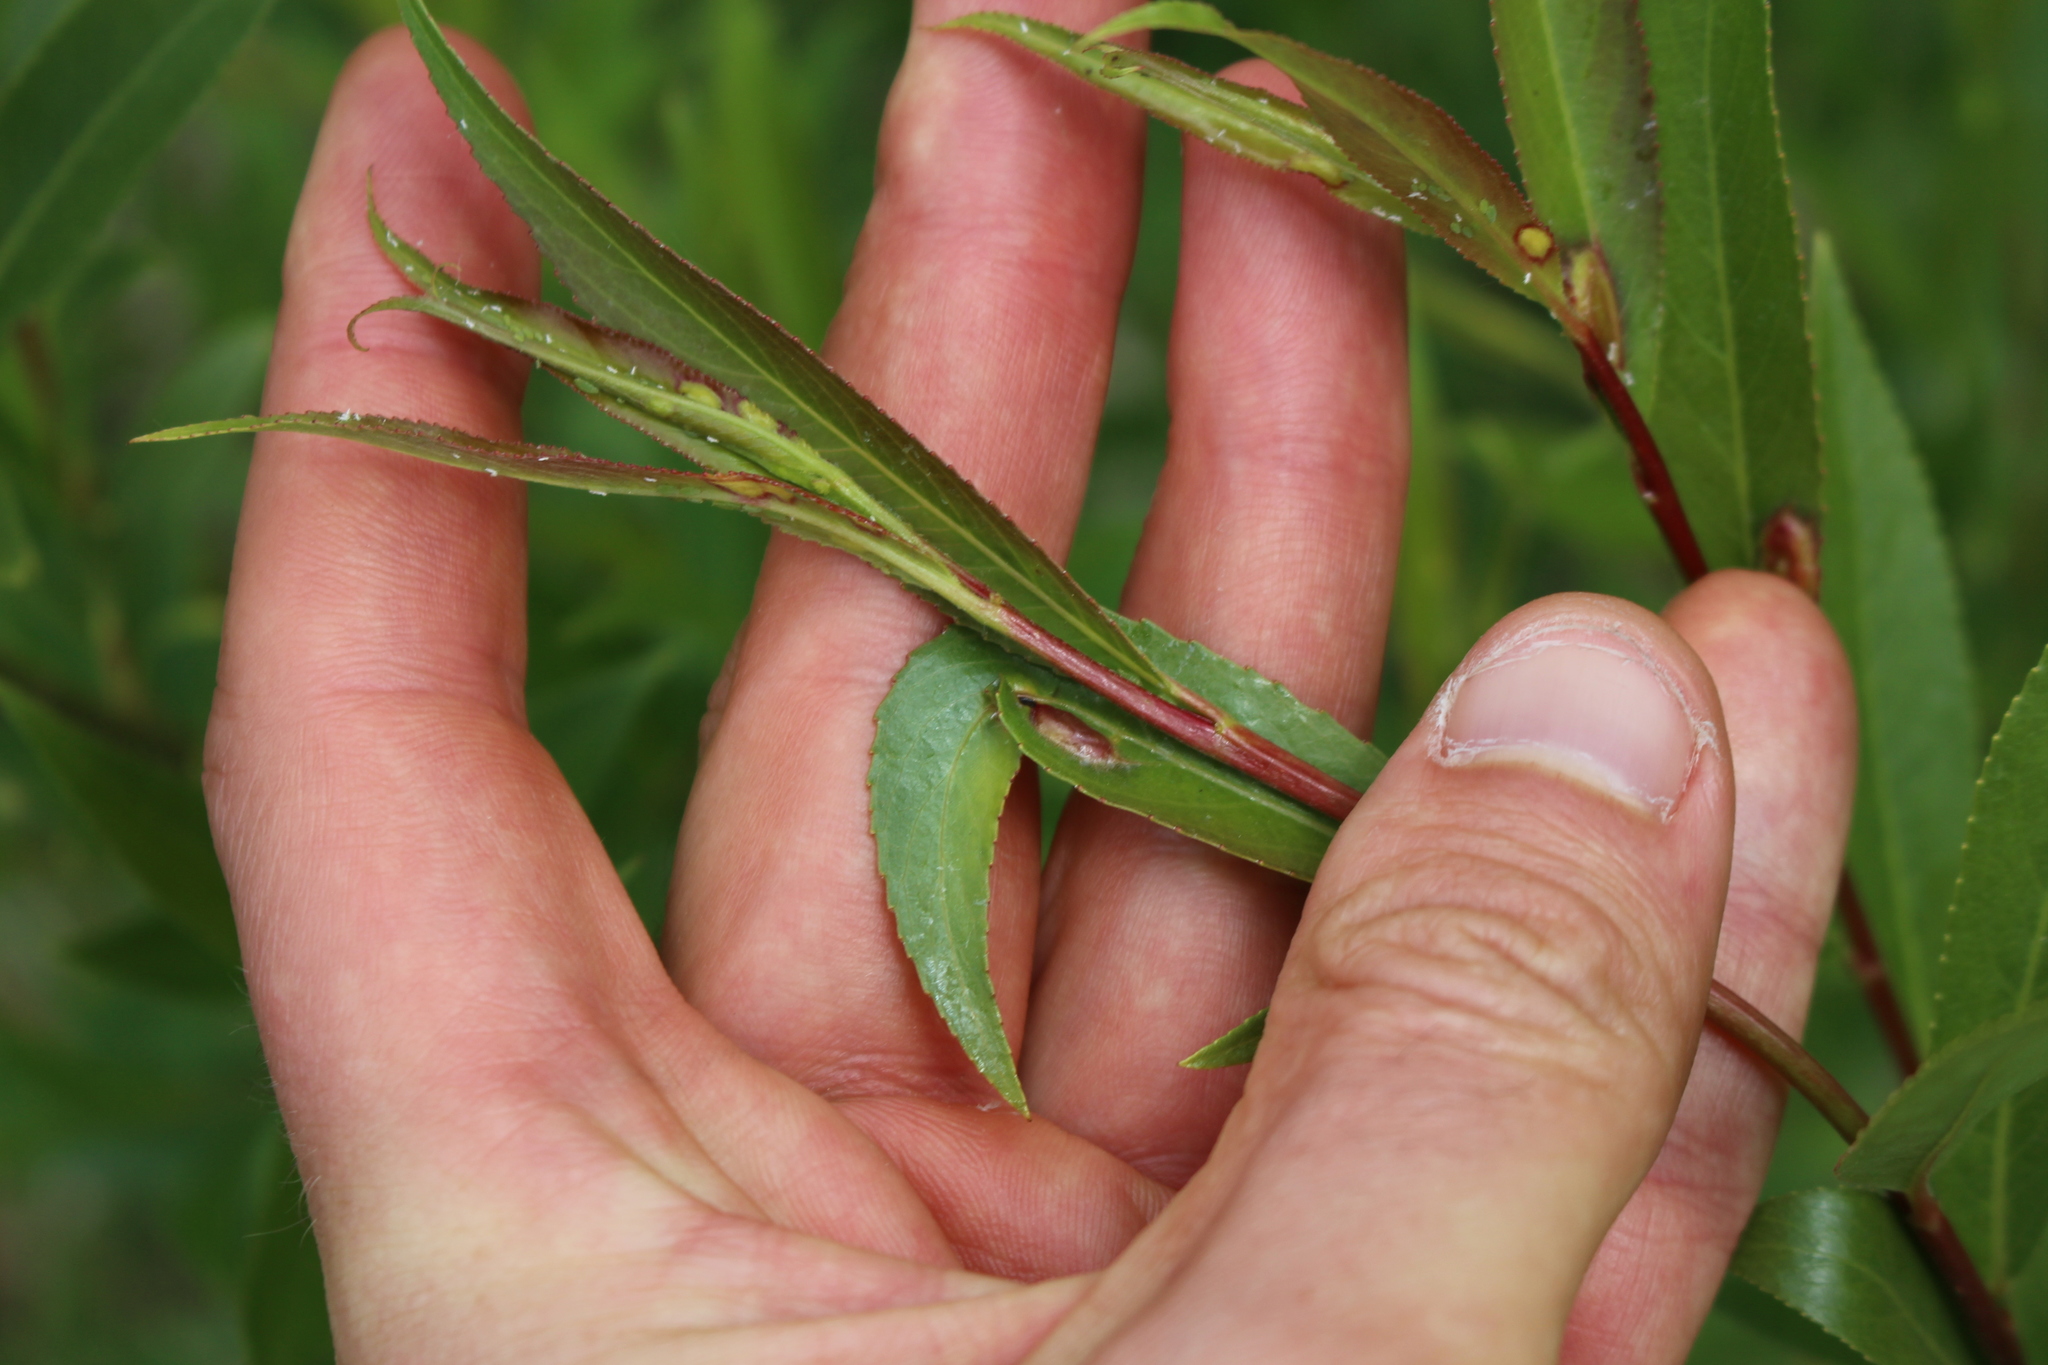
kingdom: Animalia
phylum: Arthropoda
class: Insecta
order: Hymenoptera
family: Tenthredinidae
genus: Pontania
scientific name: Pontania proxima
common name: Common sawfly
